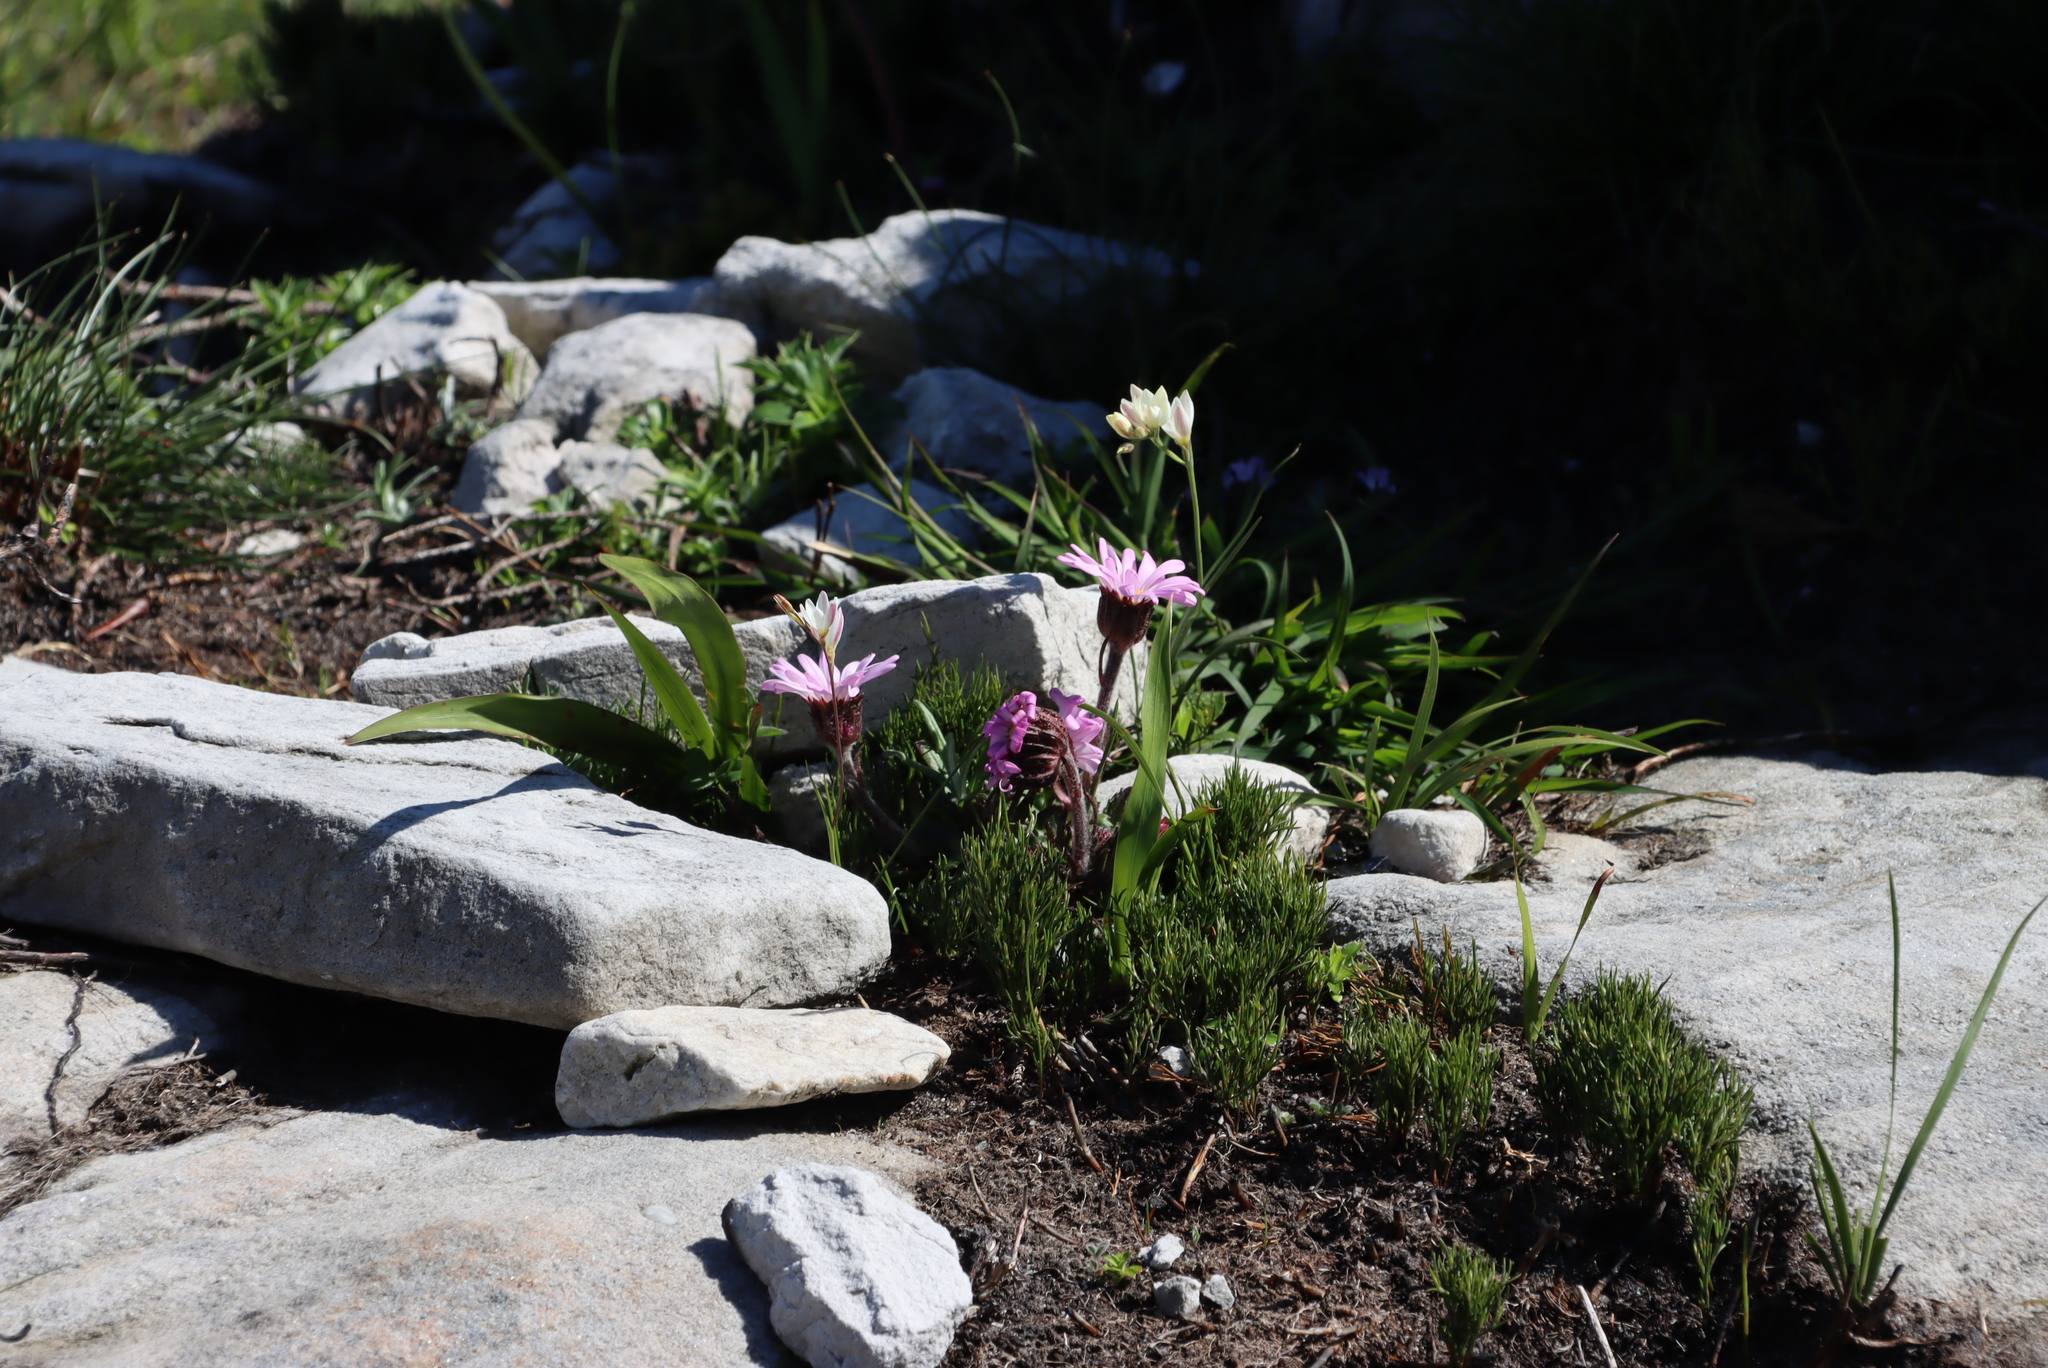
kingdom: Plantae
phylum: Tracheophyta
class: Magnoliopsida
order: Asterales
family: Asteraceae
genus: Zyrphelis
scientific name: Zyrphelis crenata
